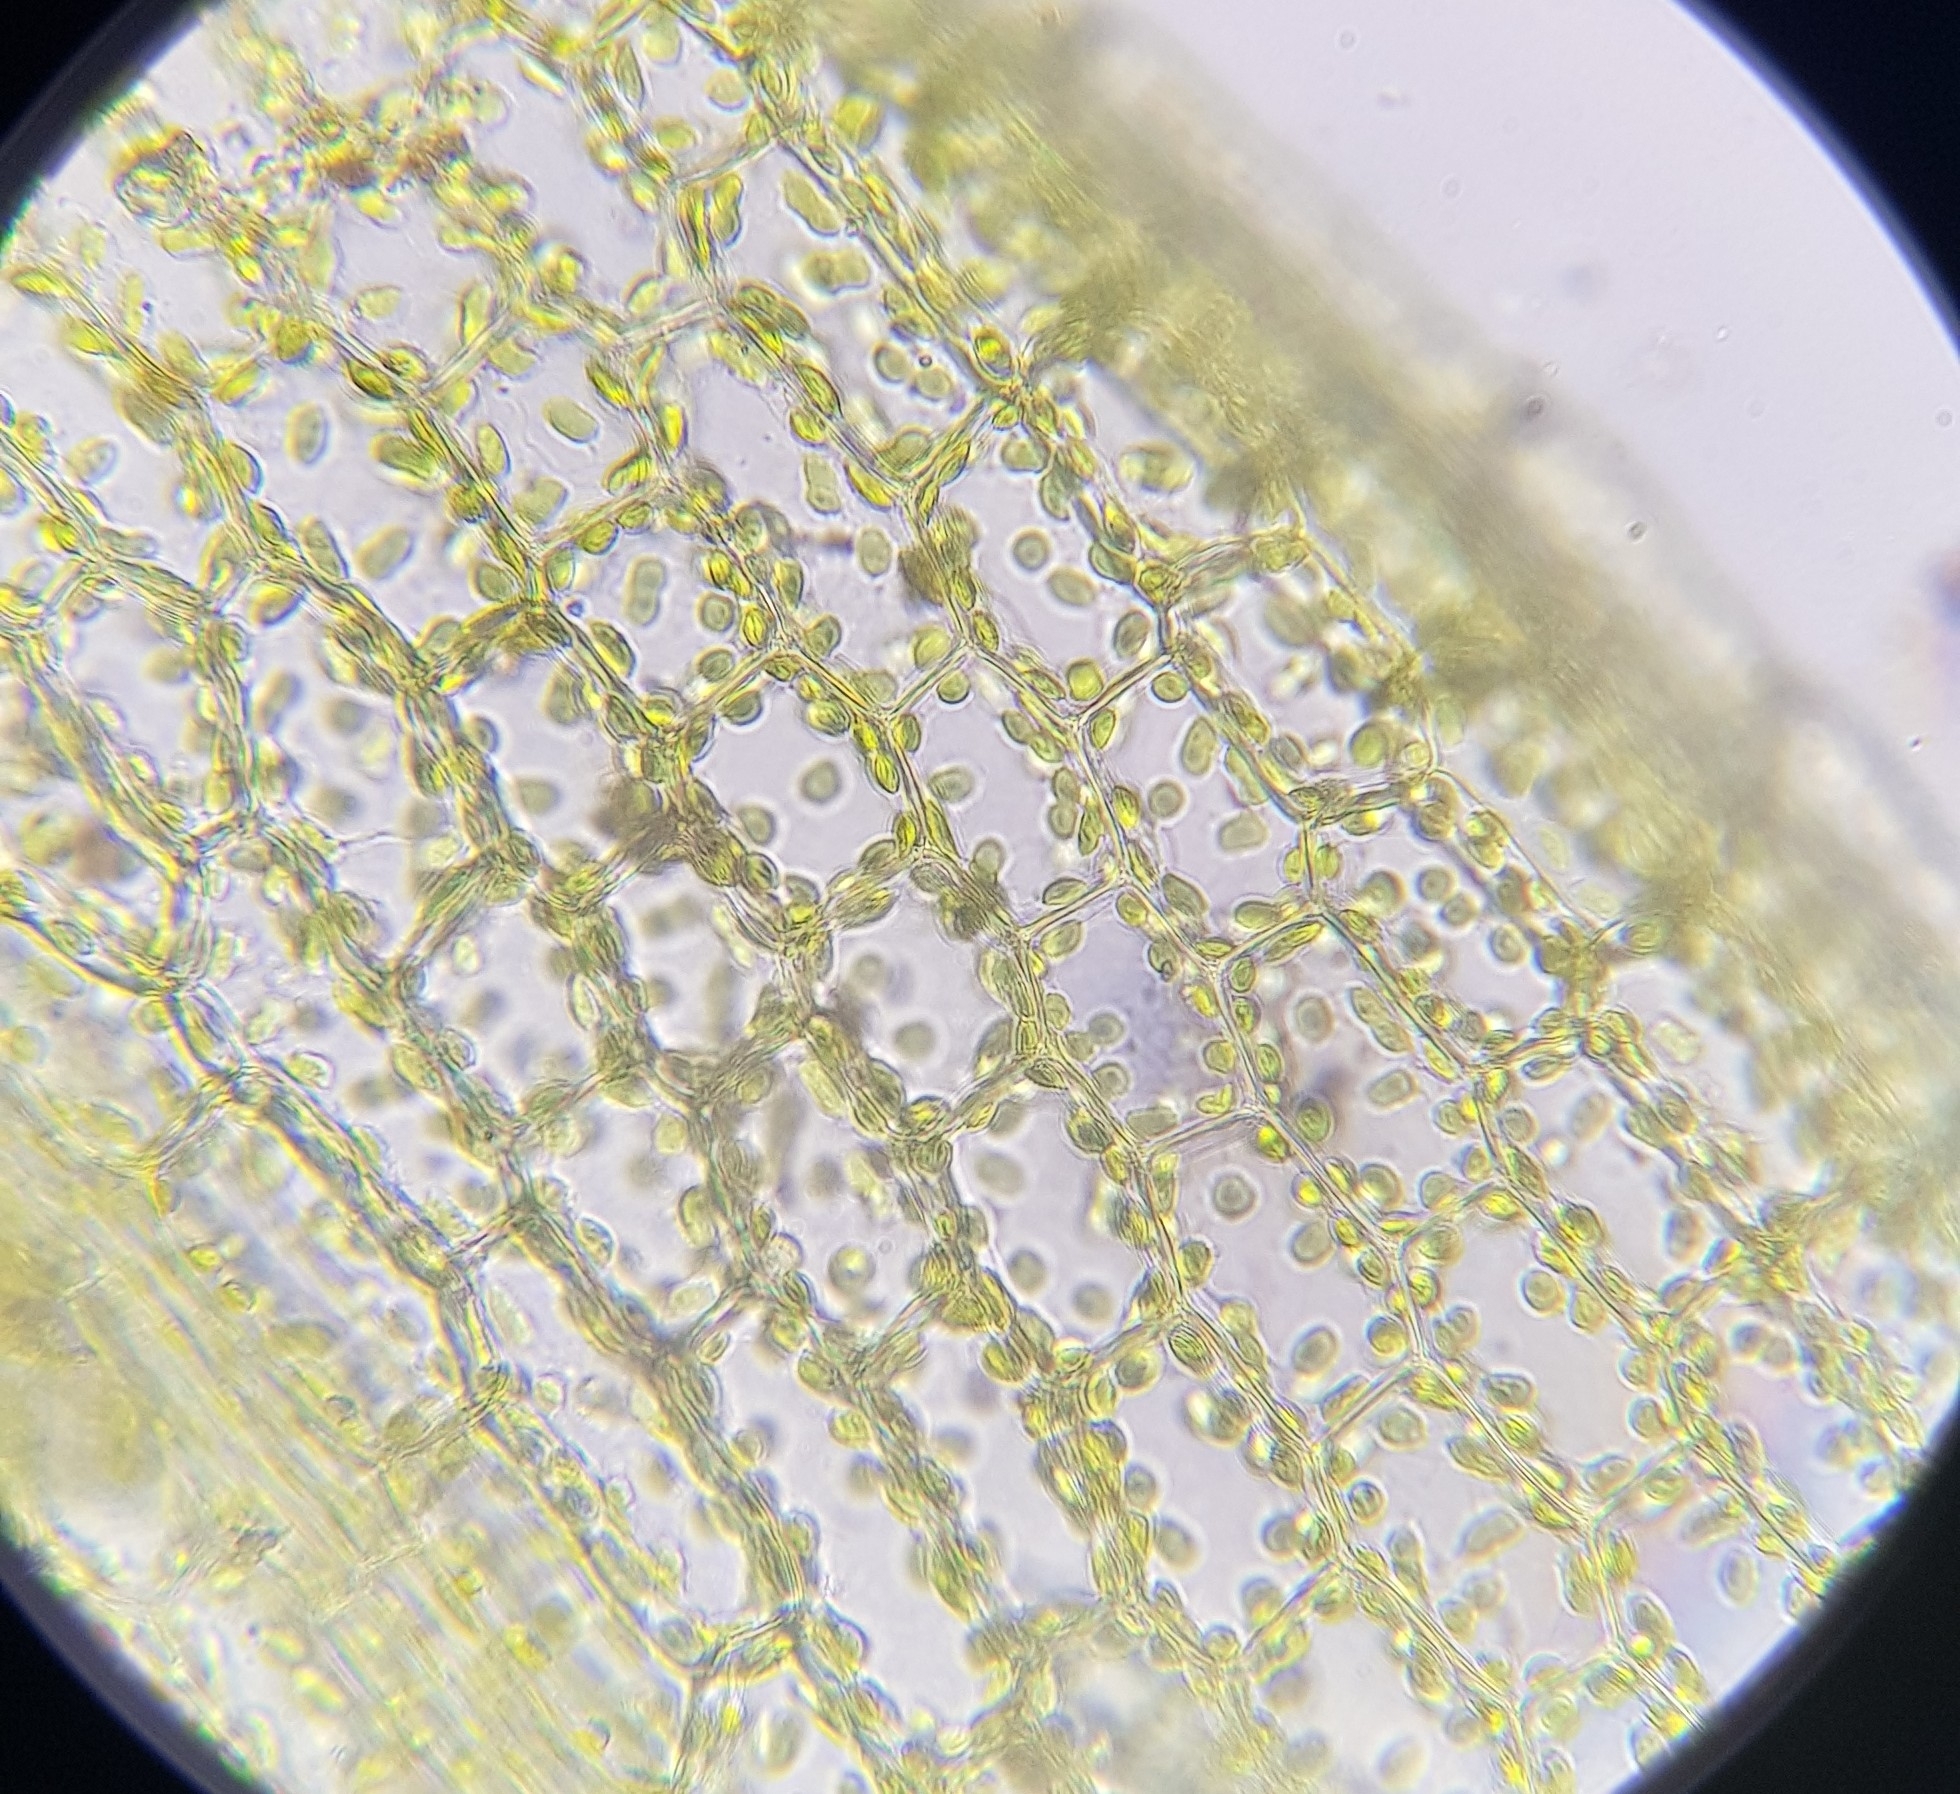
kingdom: Plantae
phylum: Bryophyta
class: Bryopsida
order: Funariales
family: Funariaceae
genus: Funaria
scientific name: Funaria hygrometrica
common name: Common cord moss
